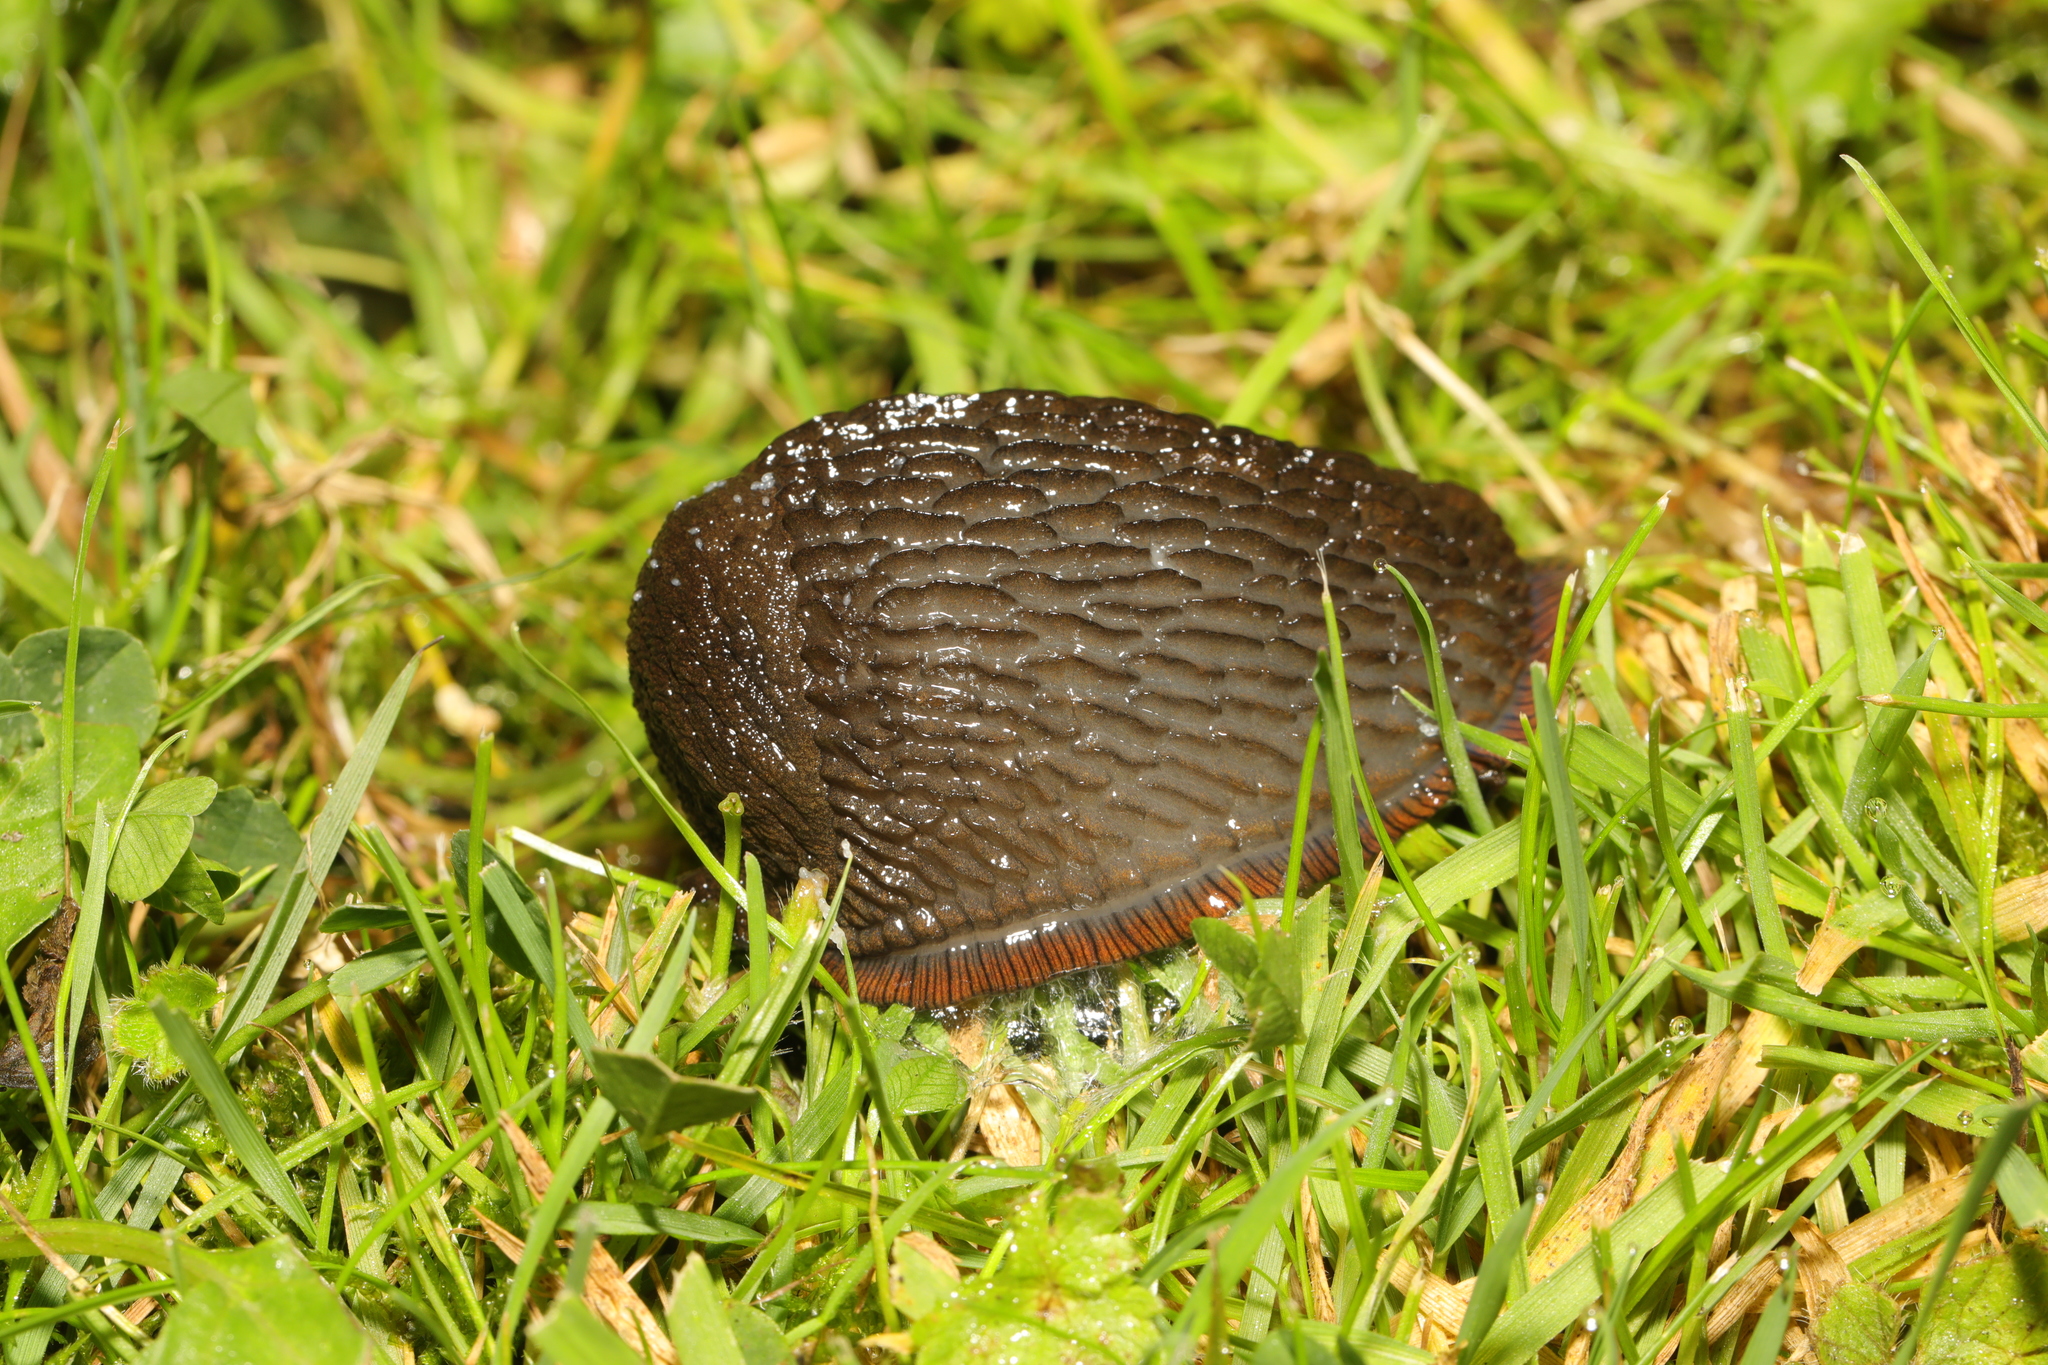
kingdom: Animalia
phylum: Mollusca
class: Gastropoda
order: Stylommatophora
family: Arionidae
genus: Arion
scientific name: Arion
